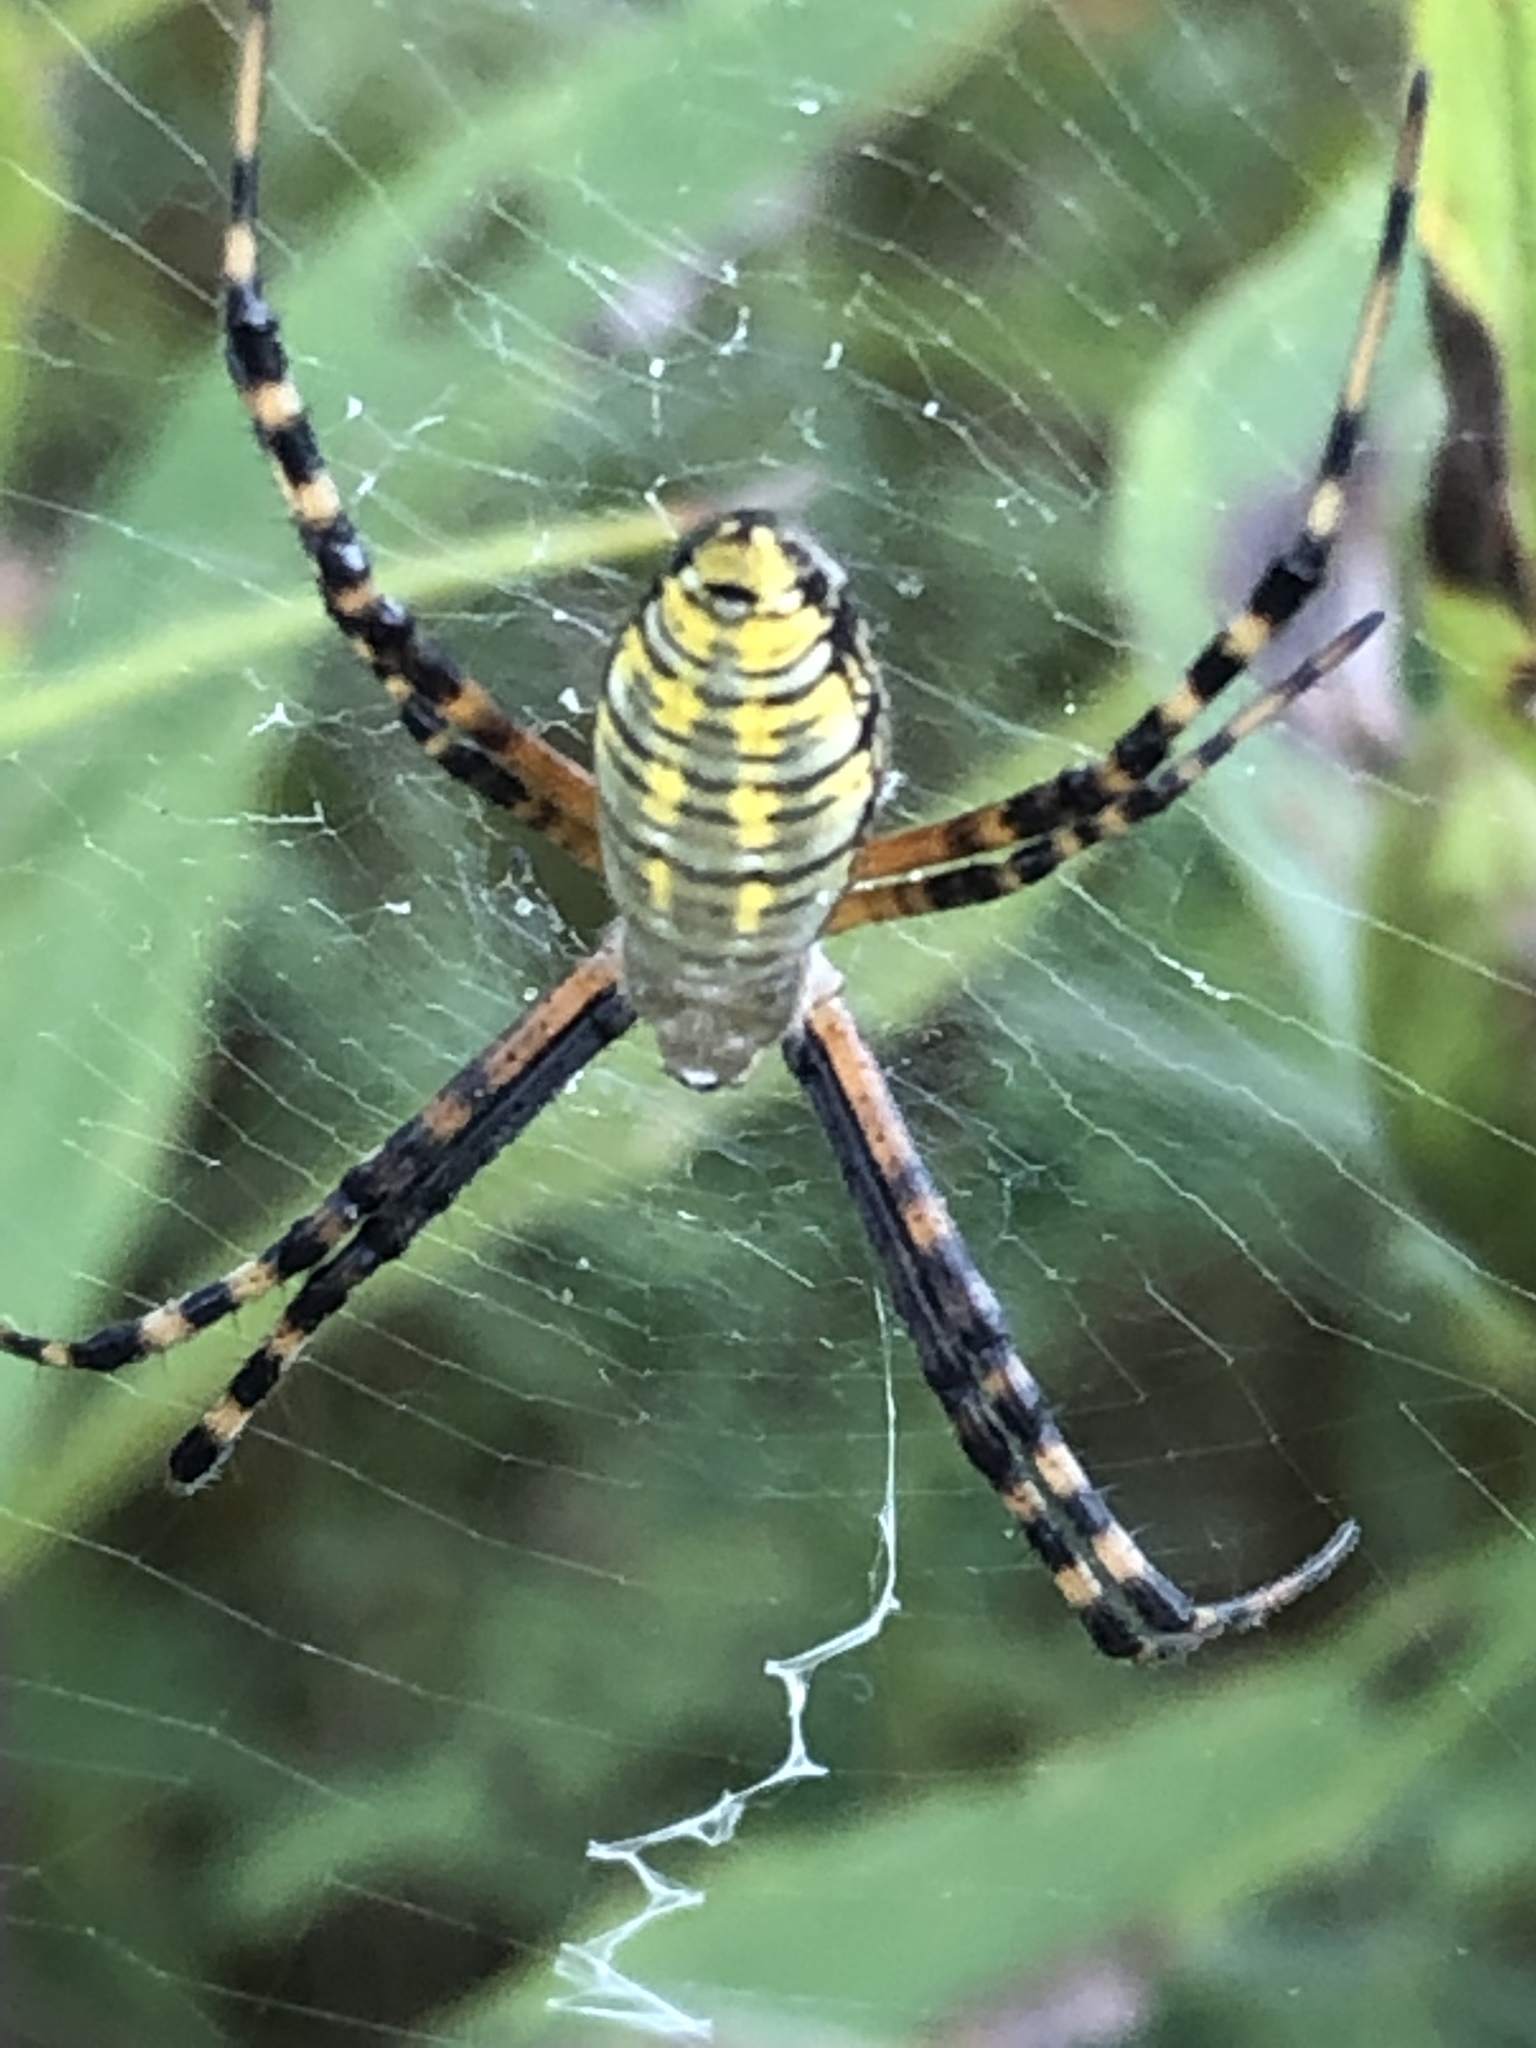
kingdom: Animalia
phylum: Arthropoda
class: Arachnida
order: Araneae
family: Araneidae
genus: Argiope
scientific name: Argiope trifasciata
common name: Banded garden spider
